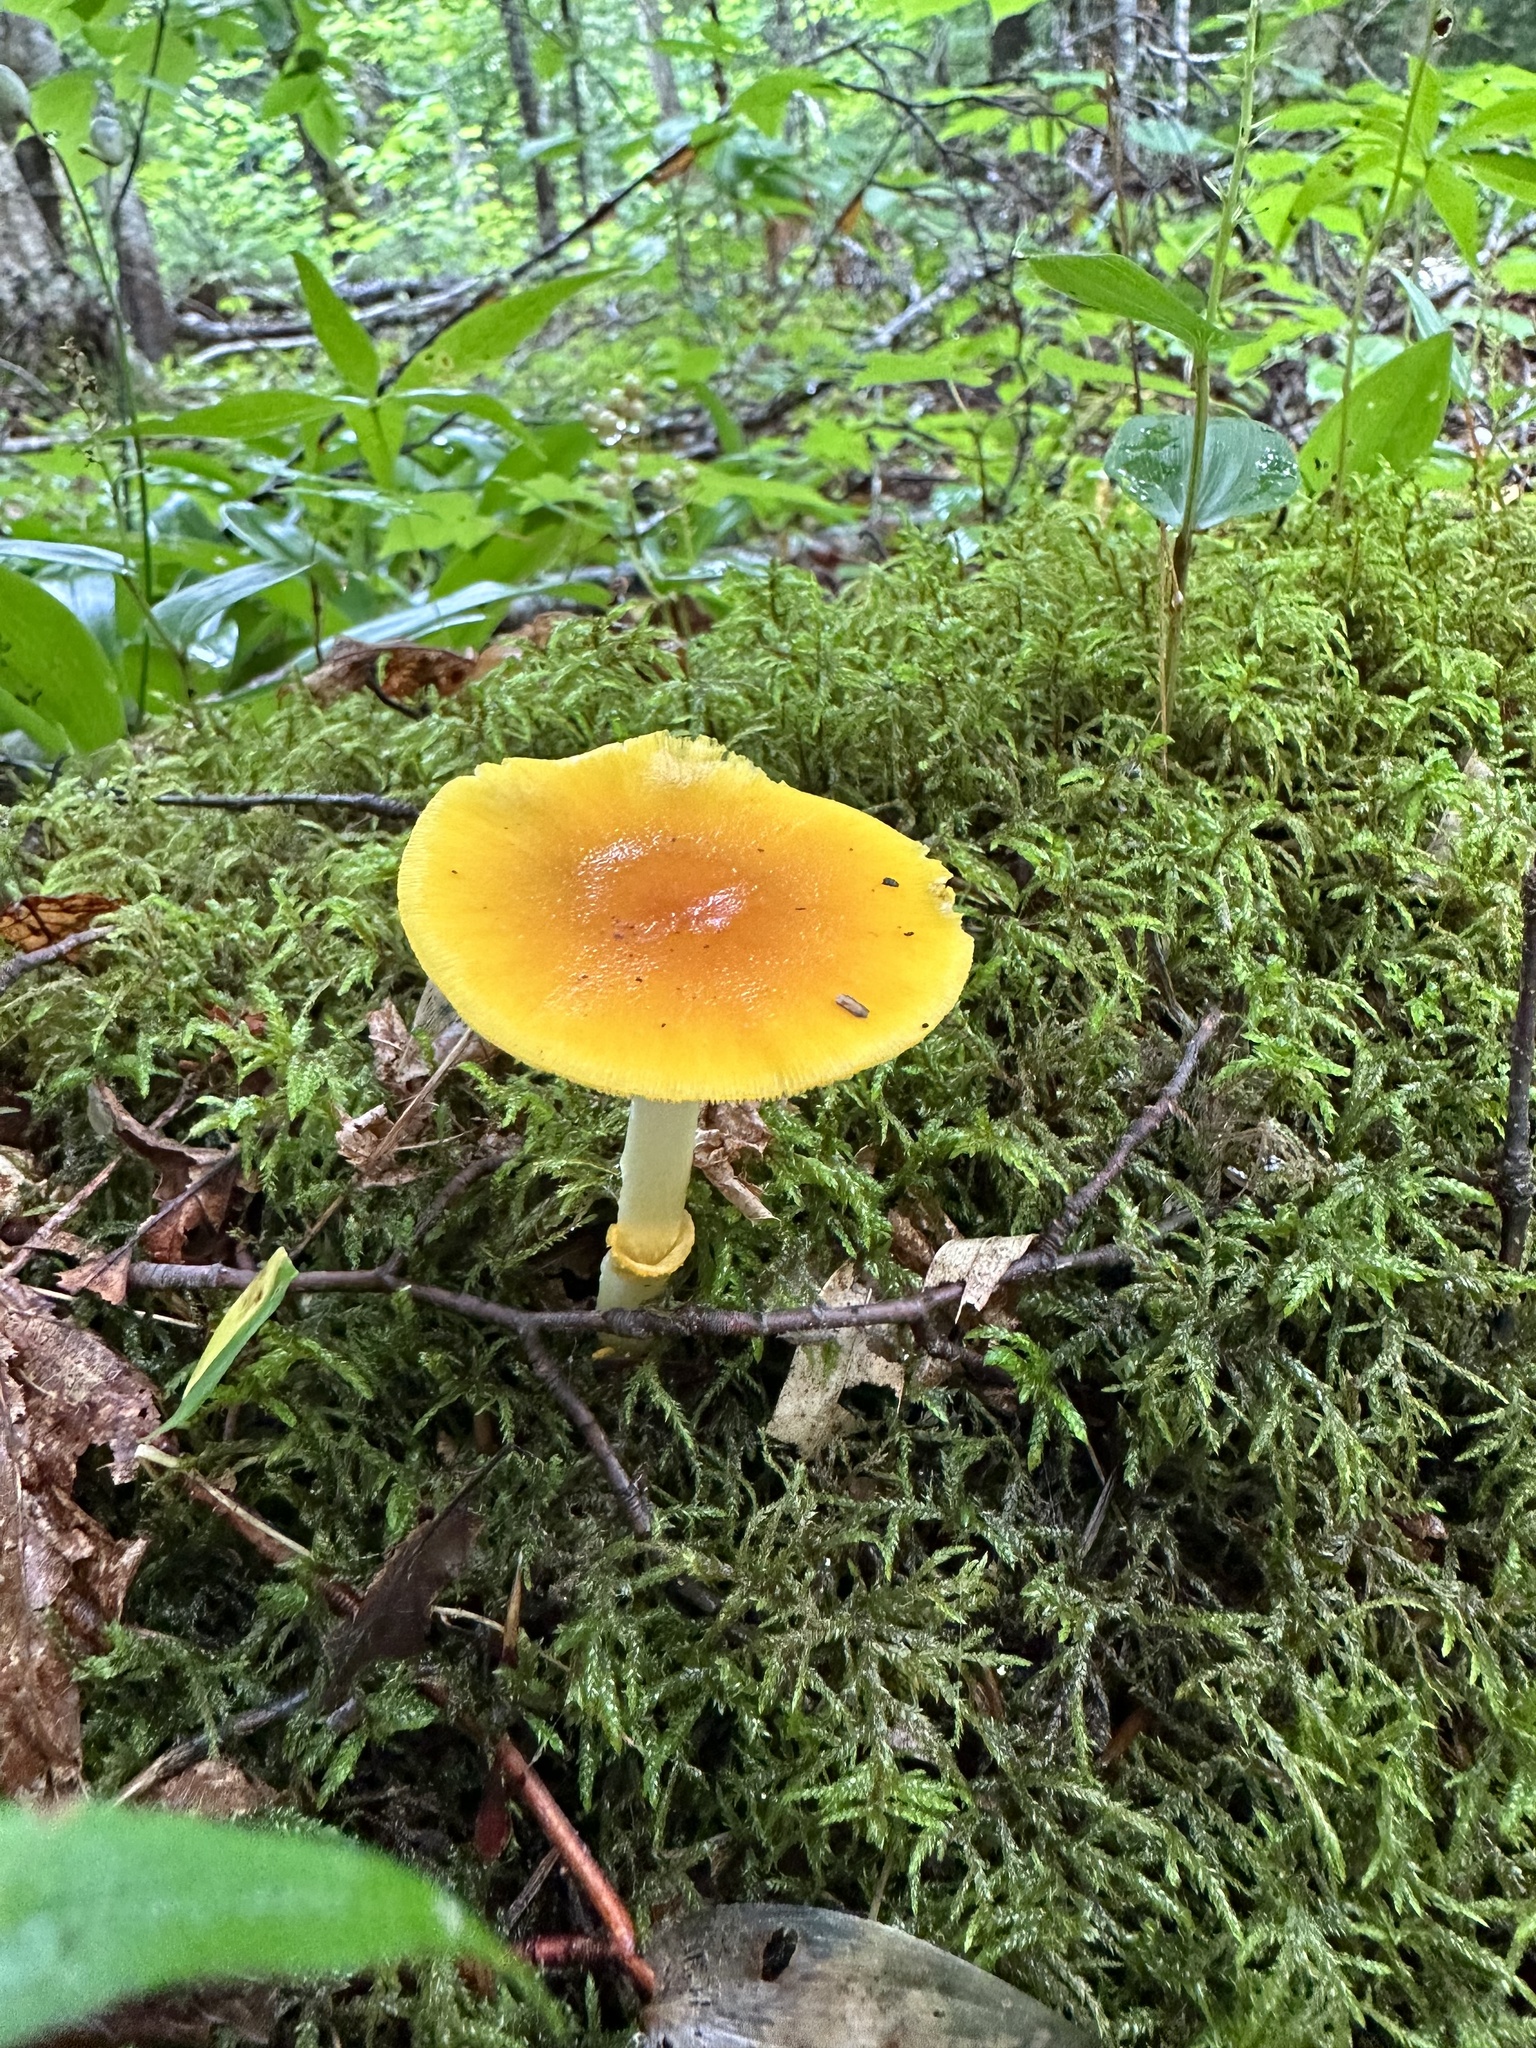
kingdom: Fungi
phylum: Basidiomycota
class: Agaricomycetes
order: Agaricales
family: Amanitaceae
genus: Amanita
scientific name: Amanita flavoconia
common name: Yellow patches
